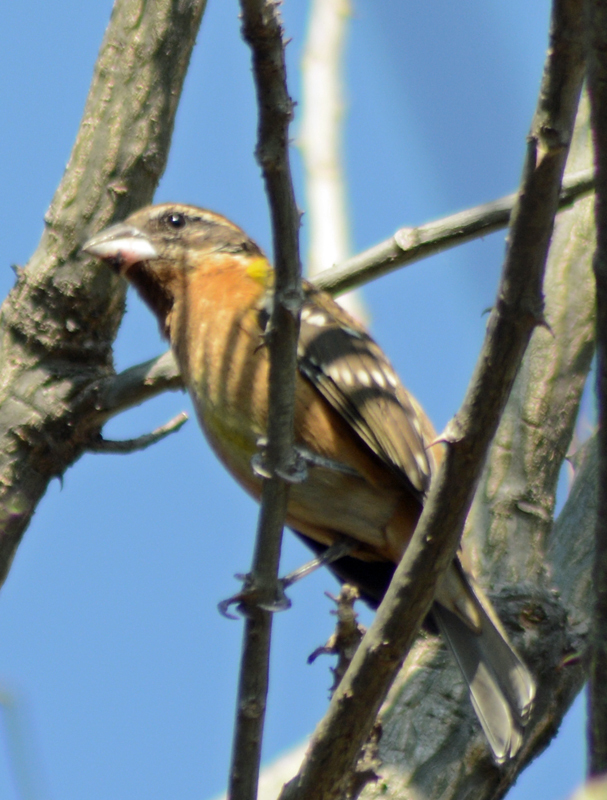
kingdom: Animalia
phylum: Chordata
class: Aves
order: Passeriformes
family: Cardinalidae
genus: Pheucticus
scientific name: Pheucticus melanocephalus
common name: Black-headed grosbeak
